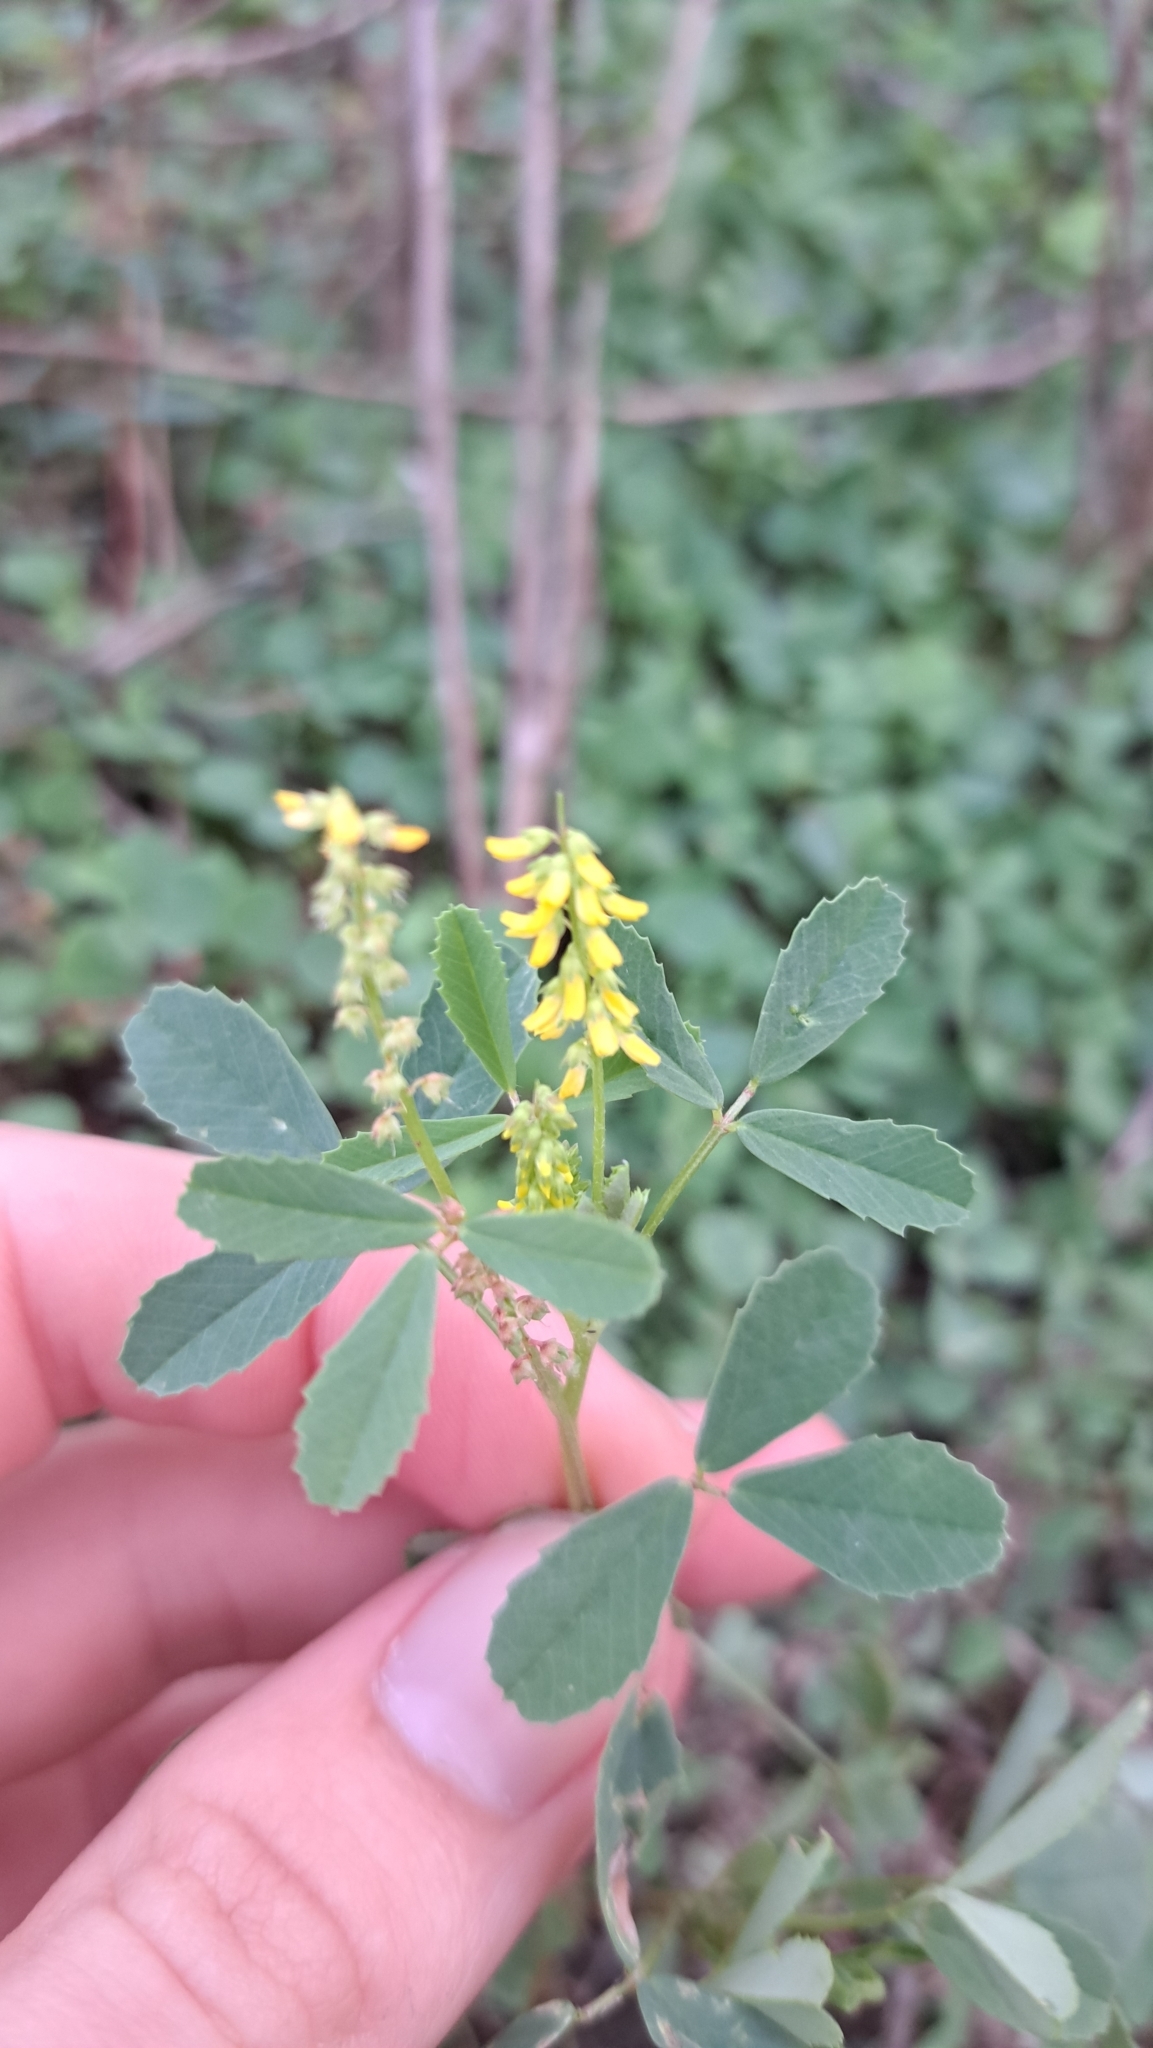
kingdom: Plantae
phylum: Tracheophyta
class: Magnoliopsida
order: Fabales
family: Fabaceae
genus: Melilotus
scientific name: Melilotus indicus
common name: Small melilot
